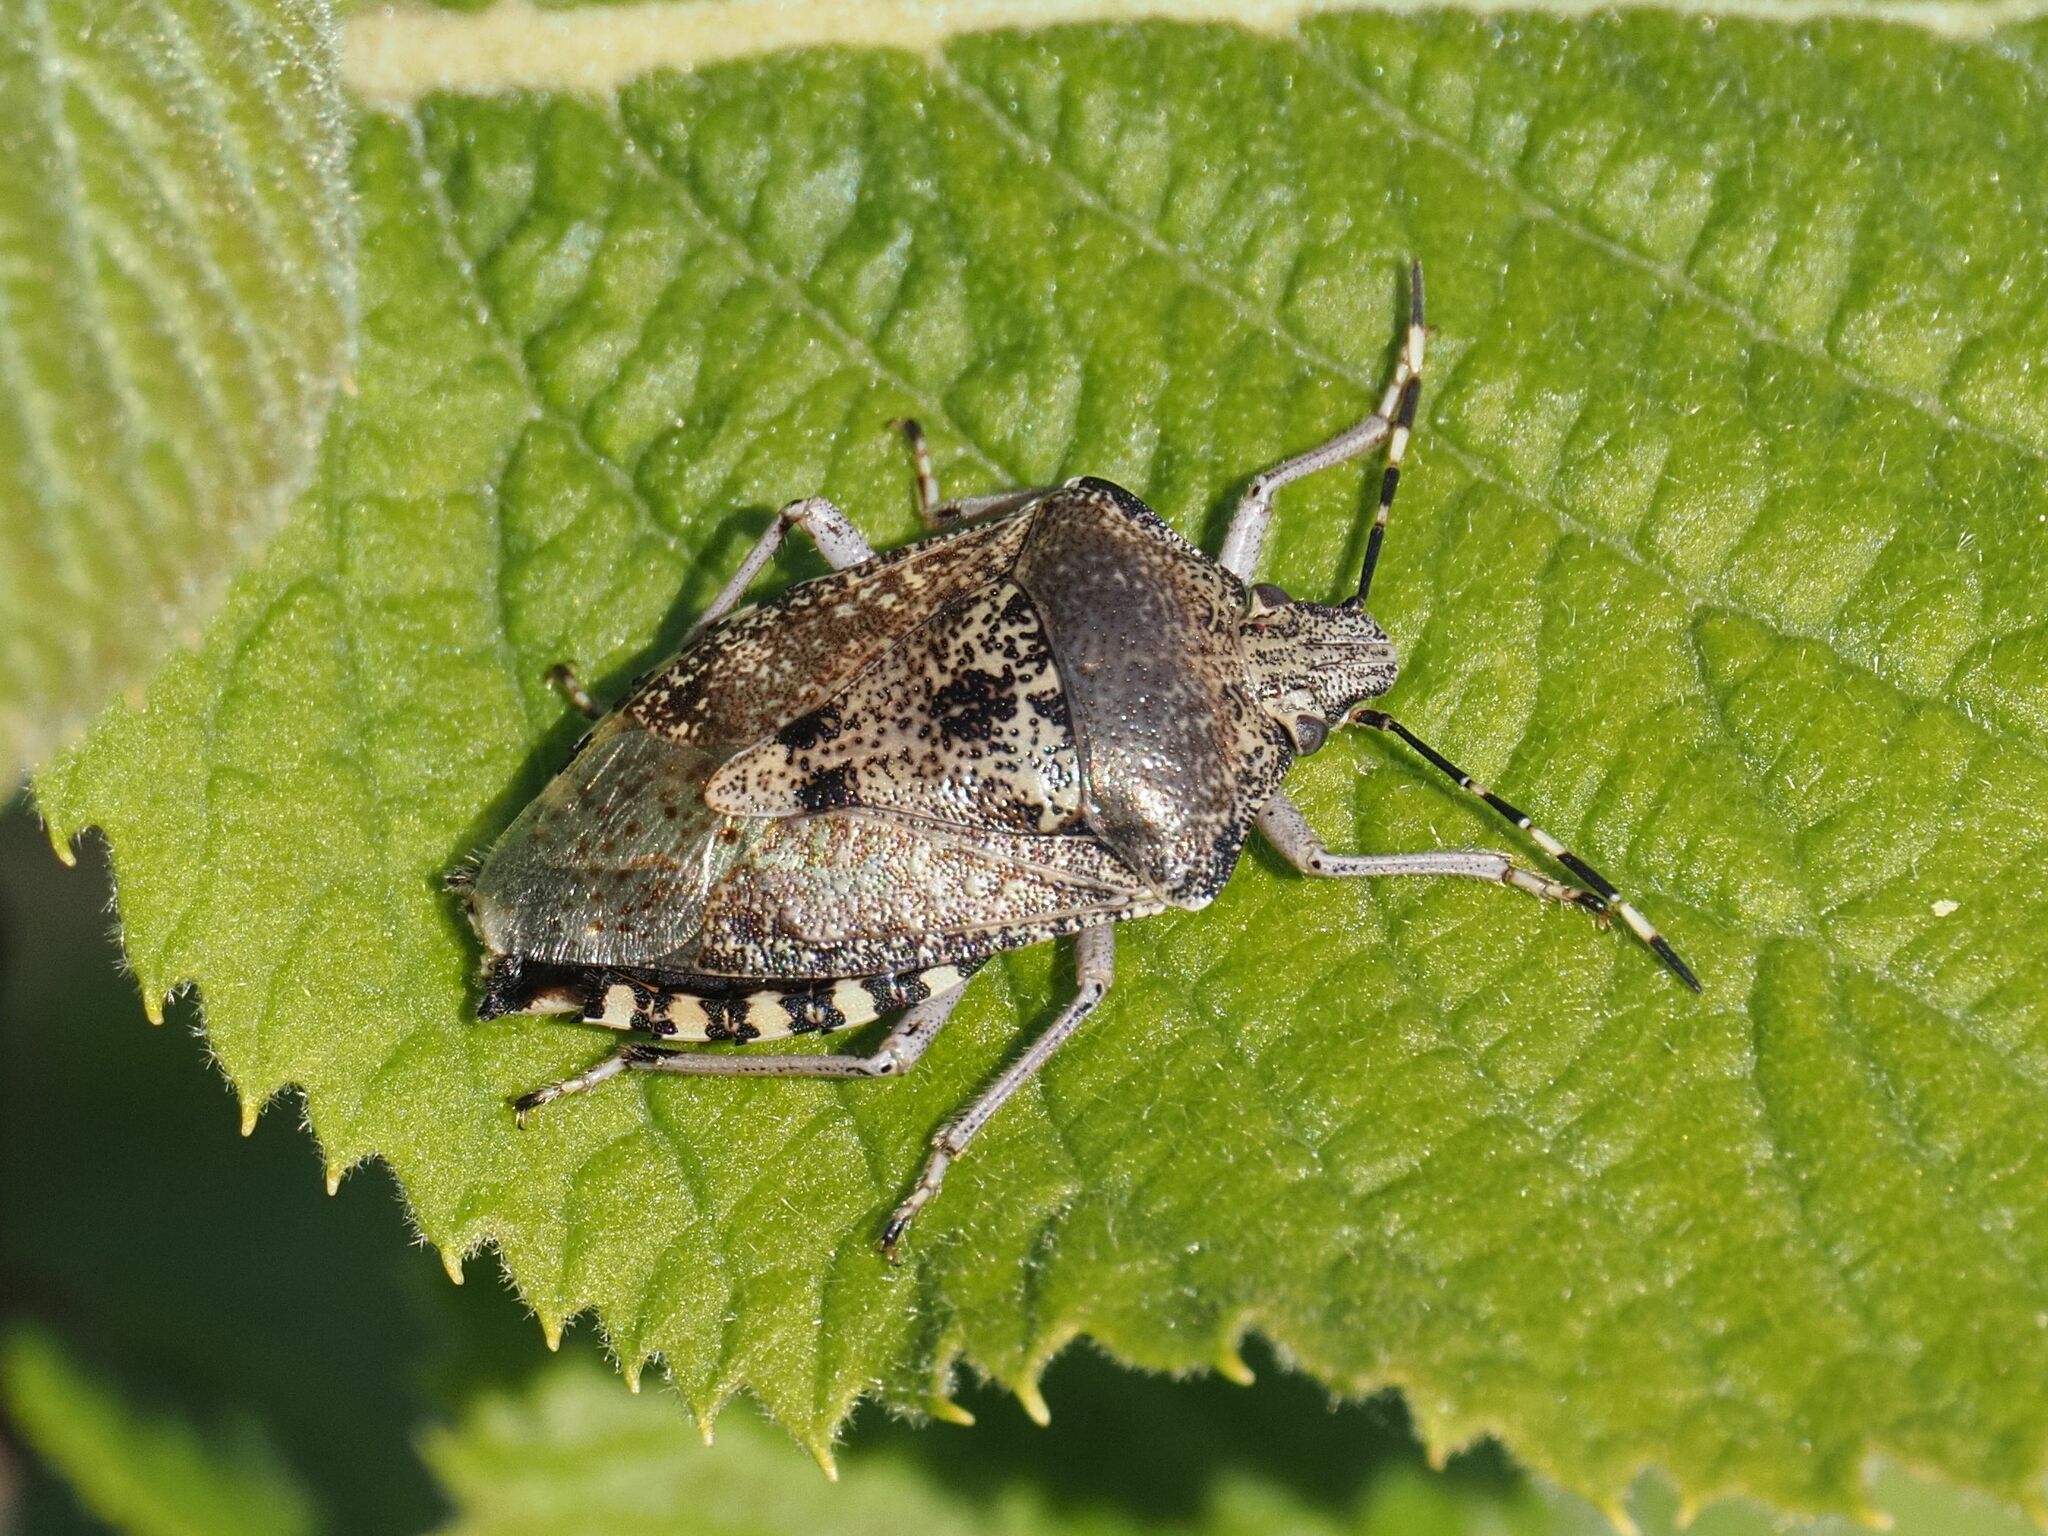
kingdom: Animalia
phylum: Arthropoda
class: Insecta
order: Hemiptera
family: Pentatomidae
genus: Rhaphigaster
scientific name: Rhaphigaster nebulosa
